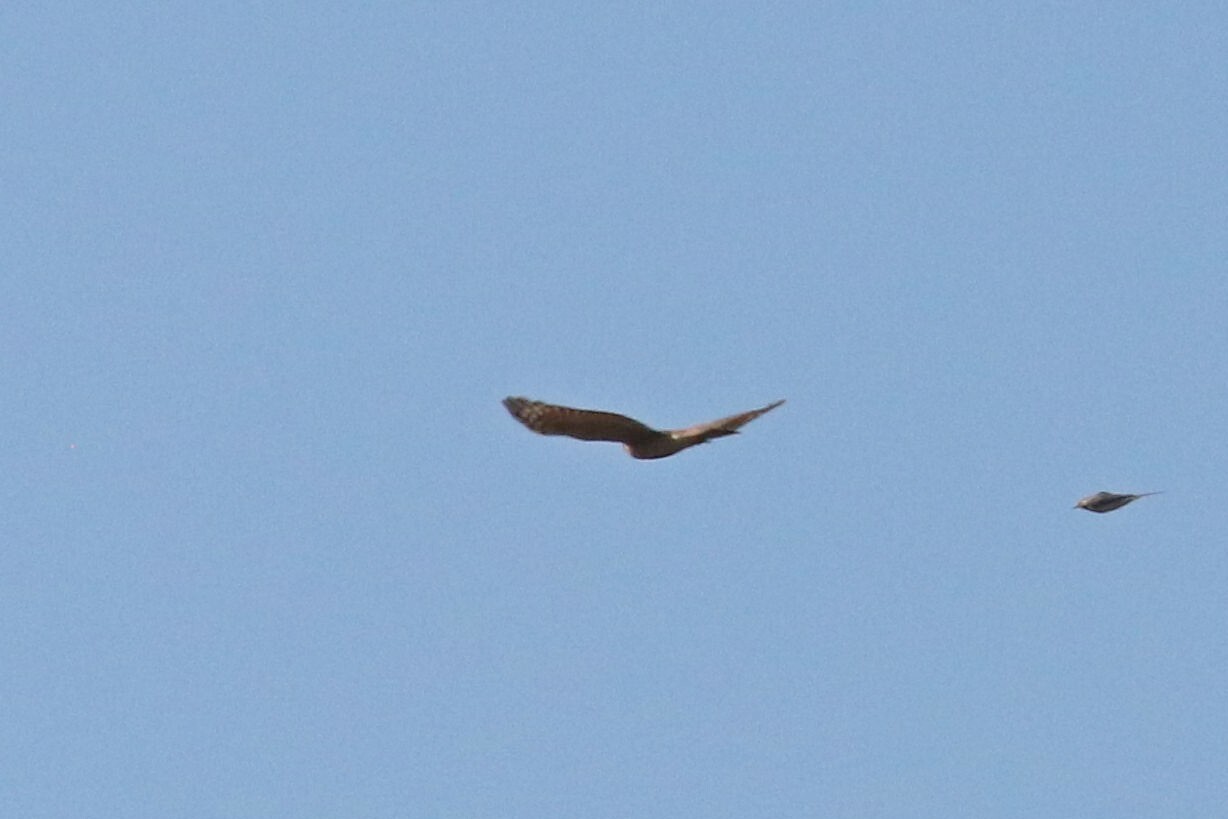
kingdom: Animalia
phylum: Chordata
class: Aves
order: Accipitriformes
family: Accipitridae
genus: Accipiter
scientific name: Accipiter nisus
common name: Eurasian sparrowhawk
